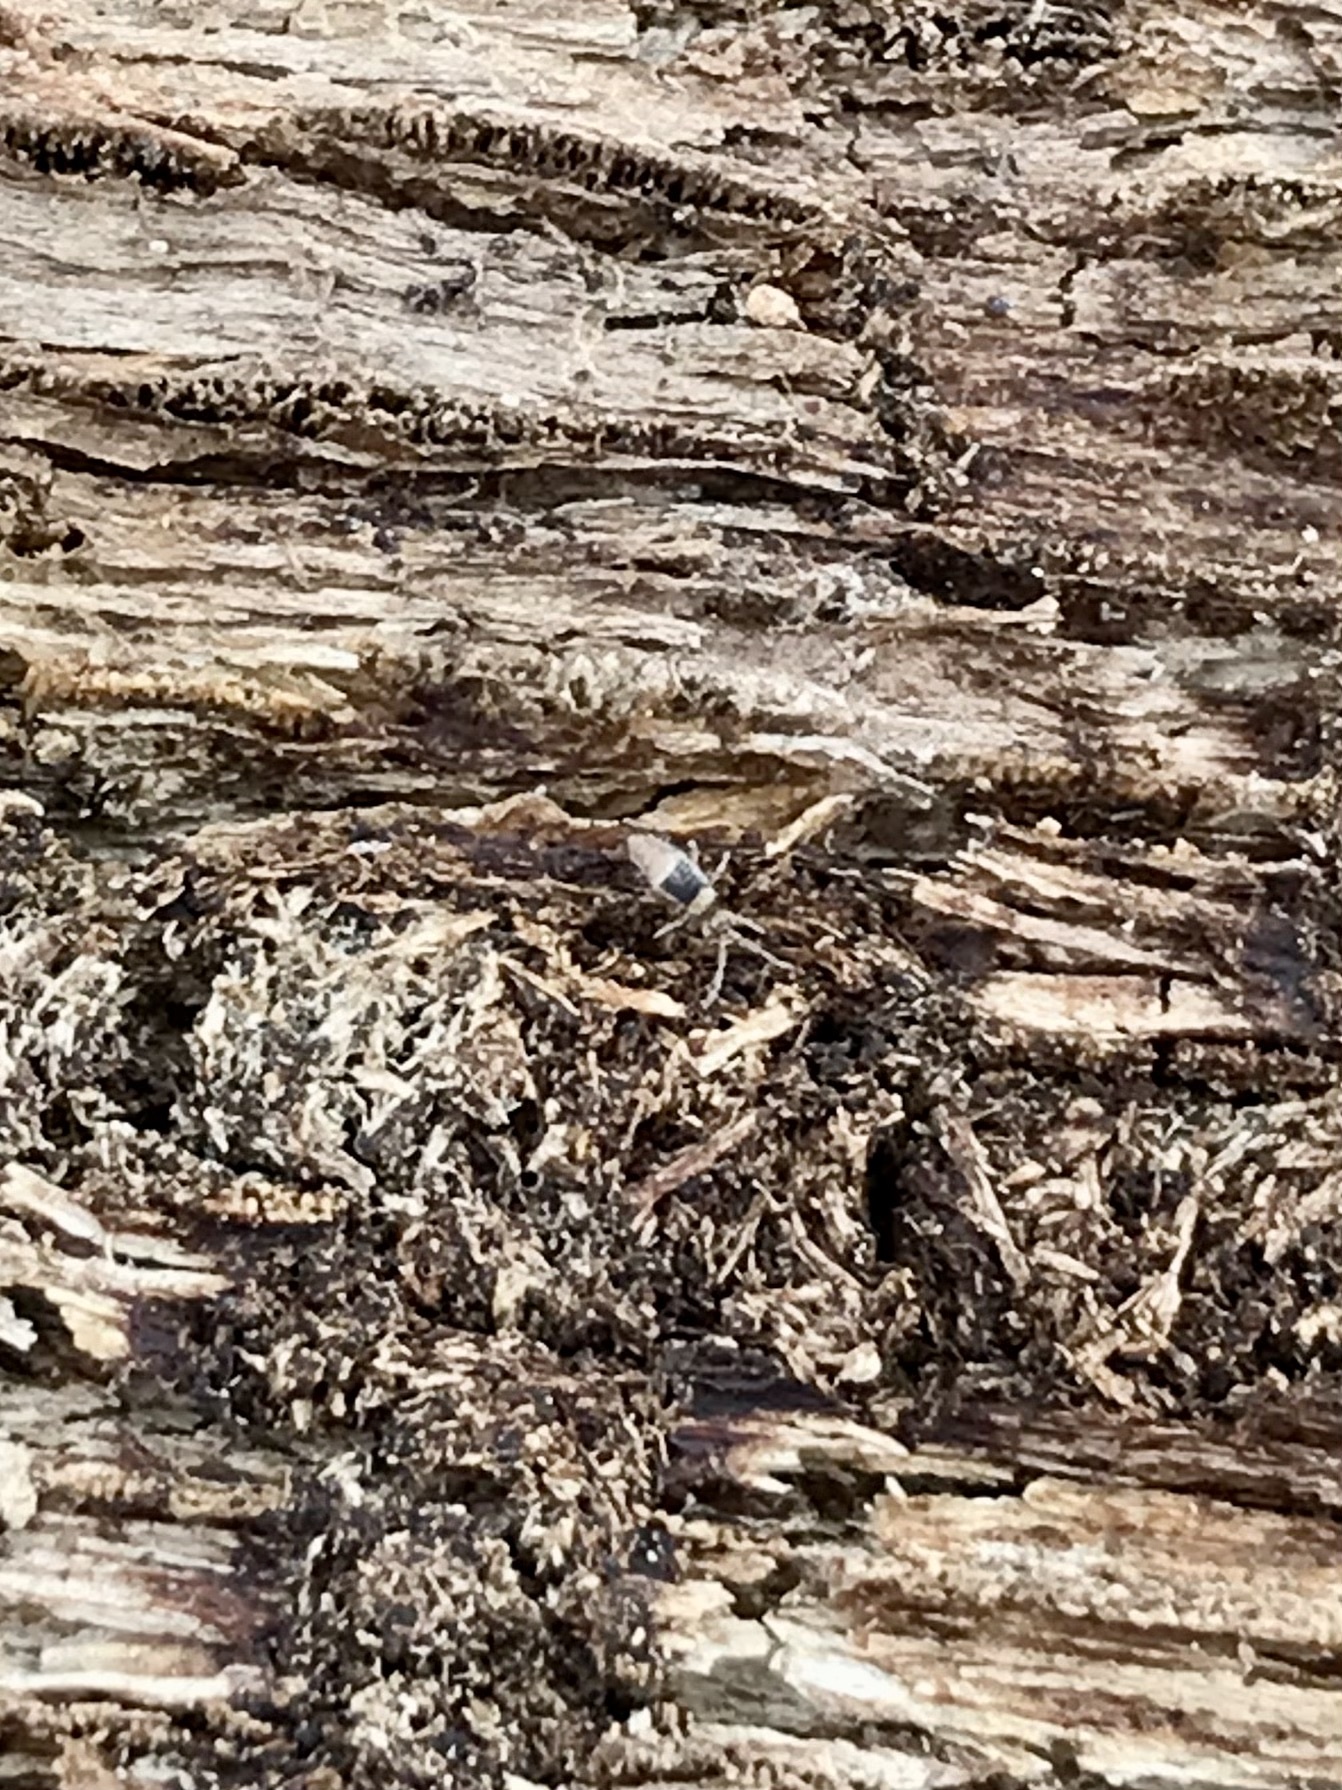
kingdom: Animalia
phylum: Arthropoda
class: Collembola
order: Entomobryomorpha
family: Entomobryidae
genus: Entomobrya
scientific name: Entomobrya clitellaria
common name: Springtail
